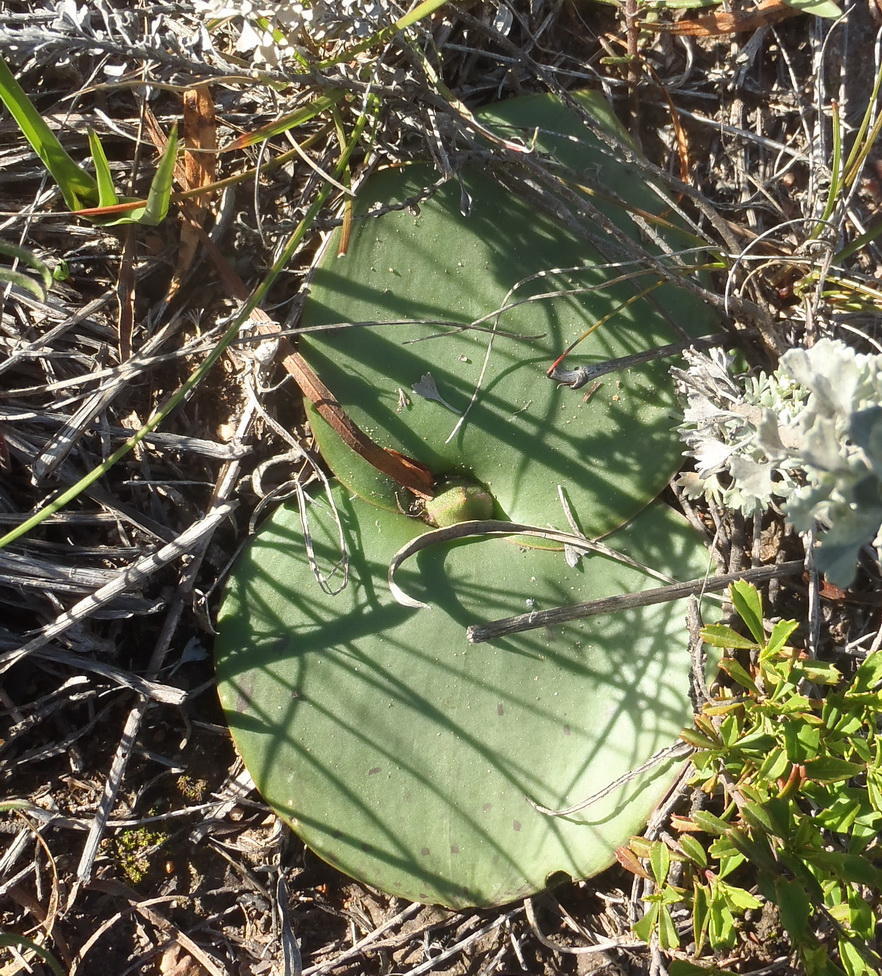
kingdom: Plantae
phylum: Tracheophyta
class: Liliopsida
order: Asparagales
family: Asparagaceae
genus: Massonia
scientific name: Massonia depressa
